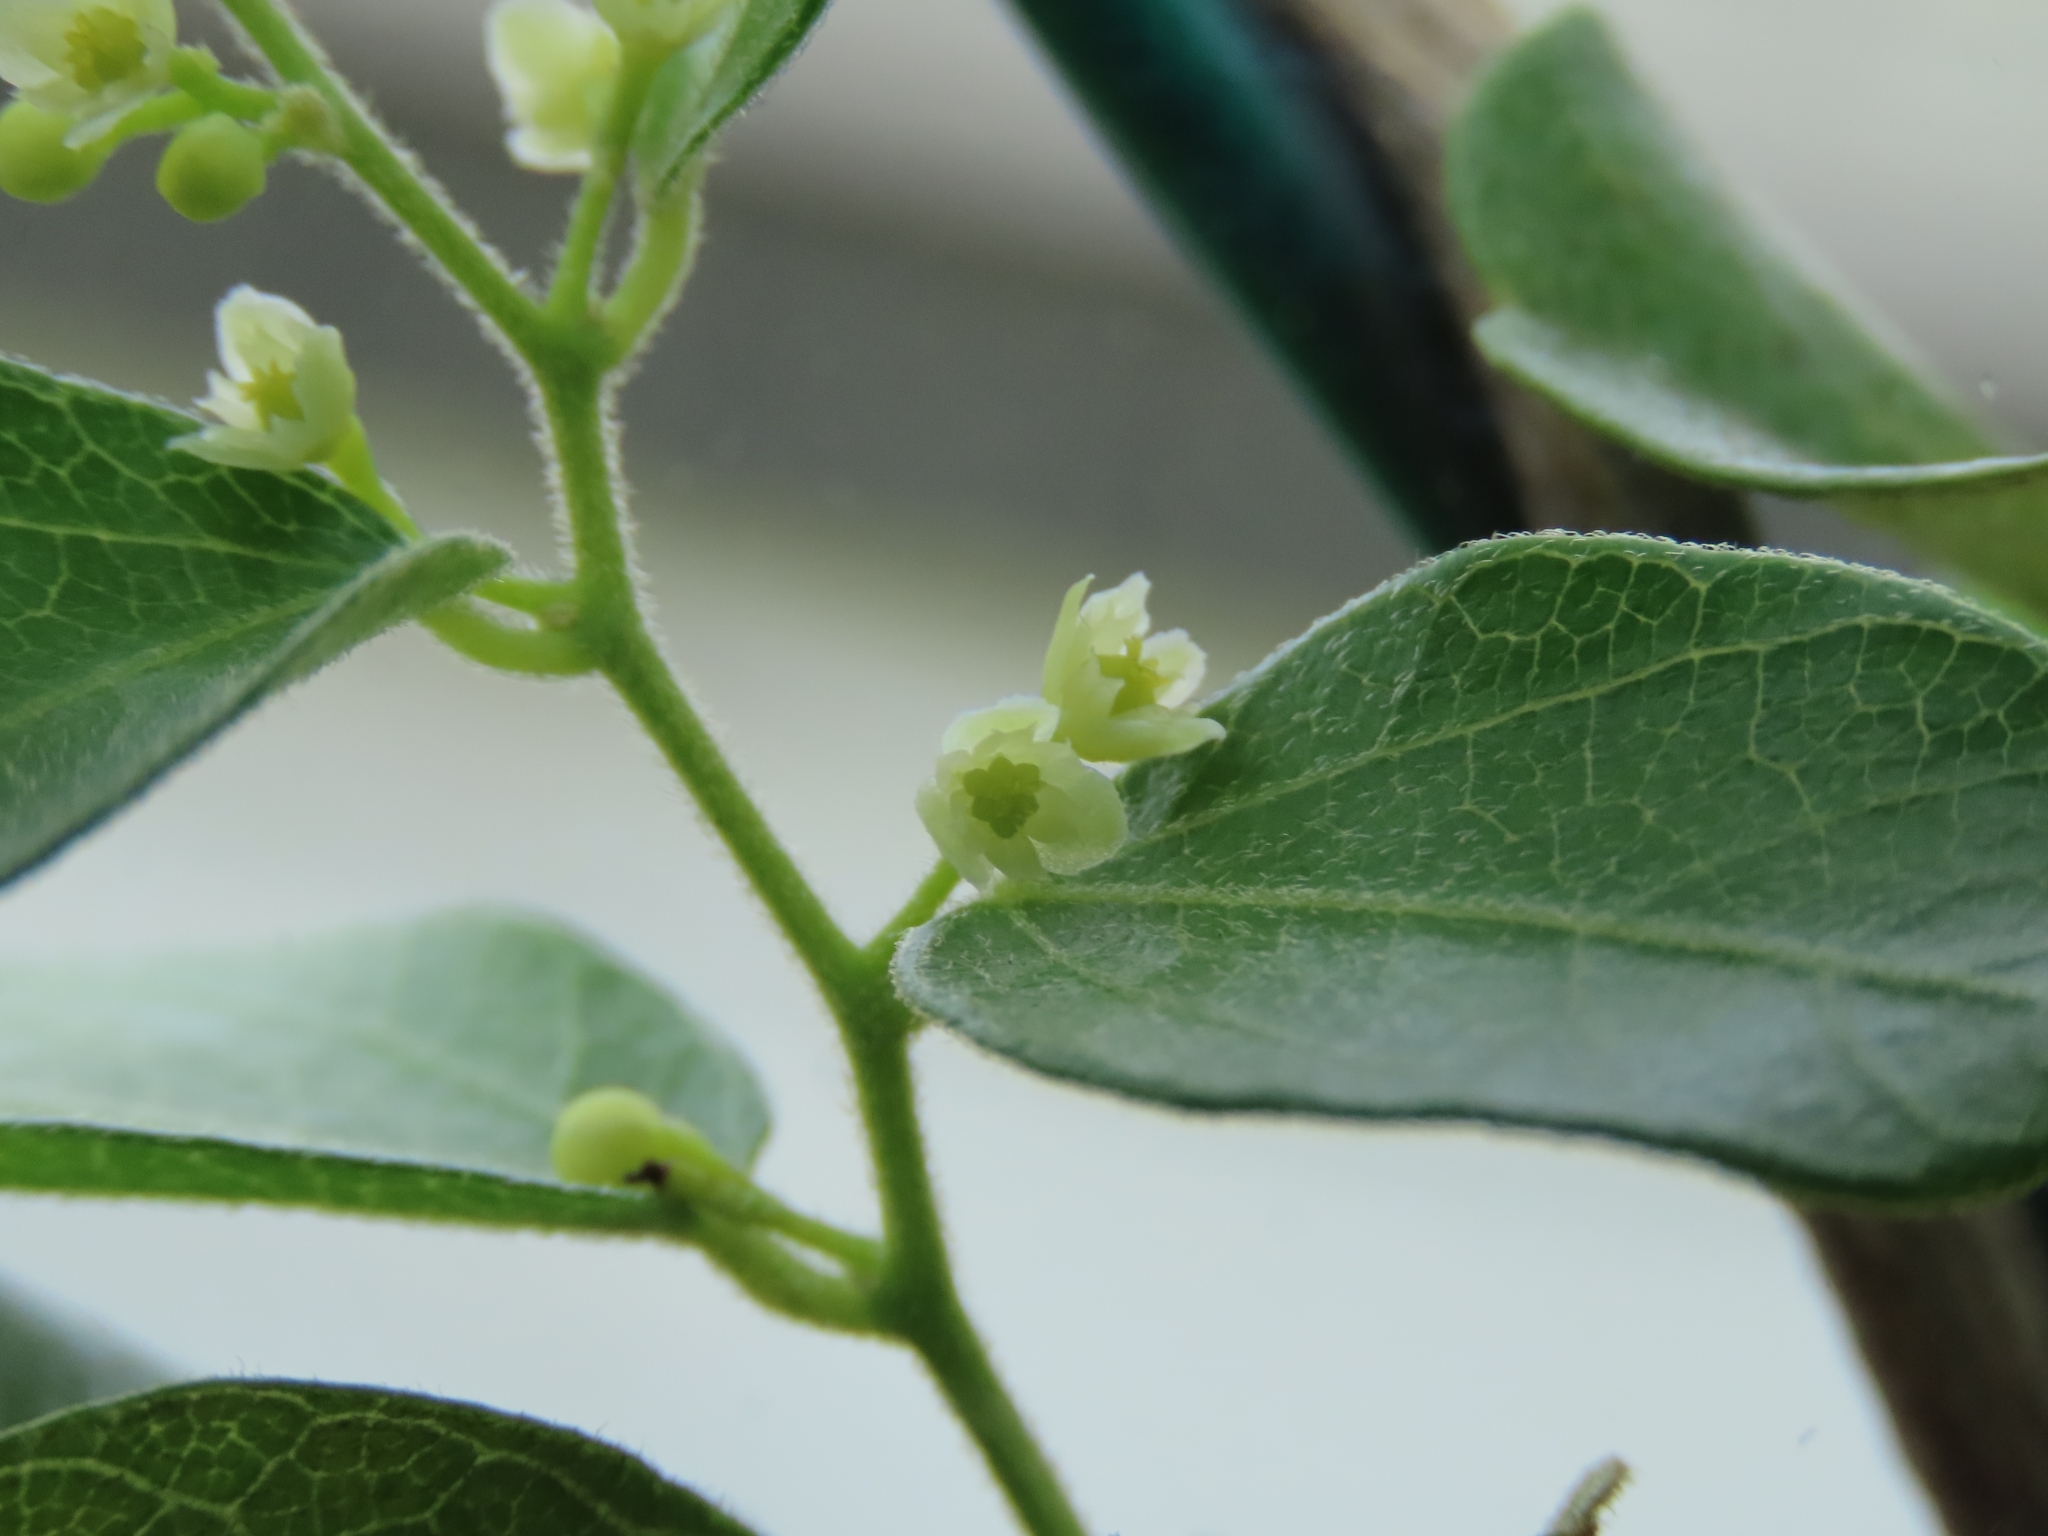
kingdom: Plantae
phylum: Tracheophyta
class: Magnoliopsida
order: Ranunculales
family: Menispermaceae
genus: Cocculus
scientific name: Cocculus orbiculatus
